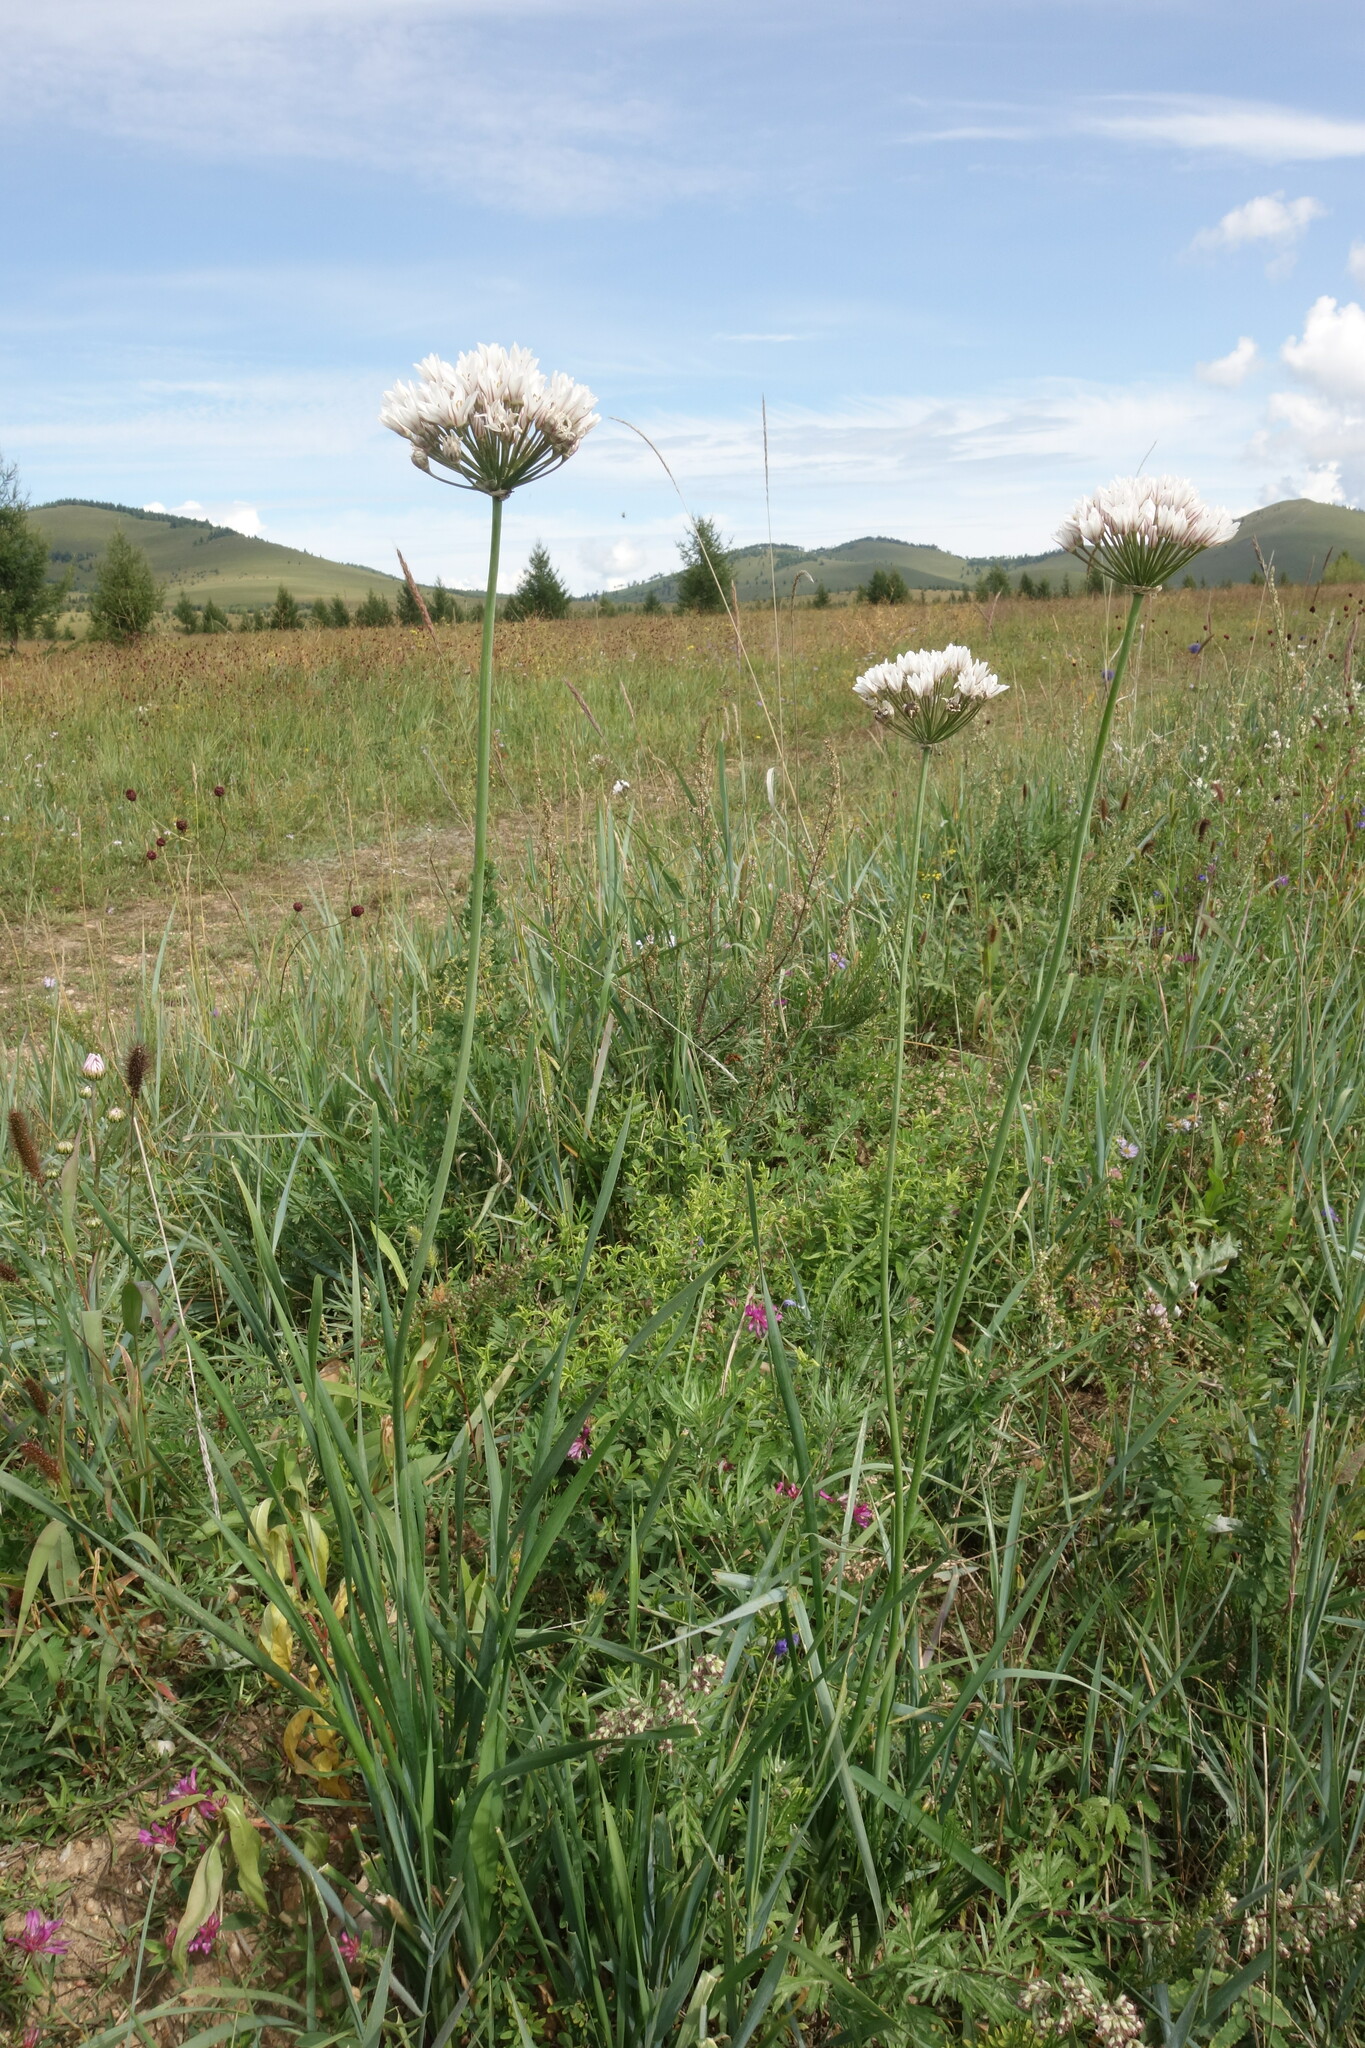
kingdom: Plantae
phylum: Tracheophyta
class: Liliopsida
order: Asparagales
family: Amaryllidaceae
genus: Allium
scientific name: Allium ramosum
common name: Fragrant garlic
